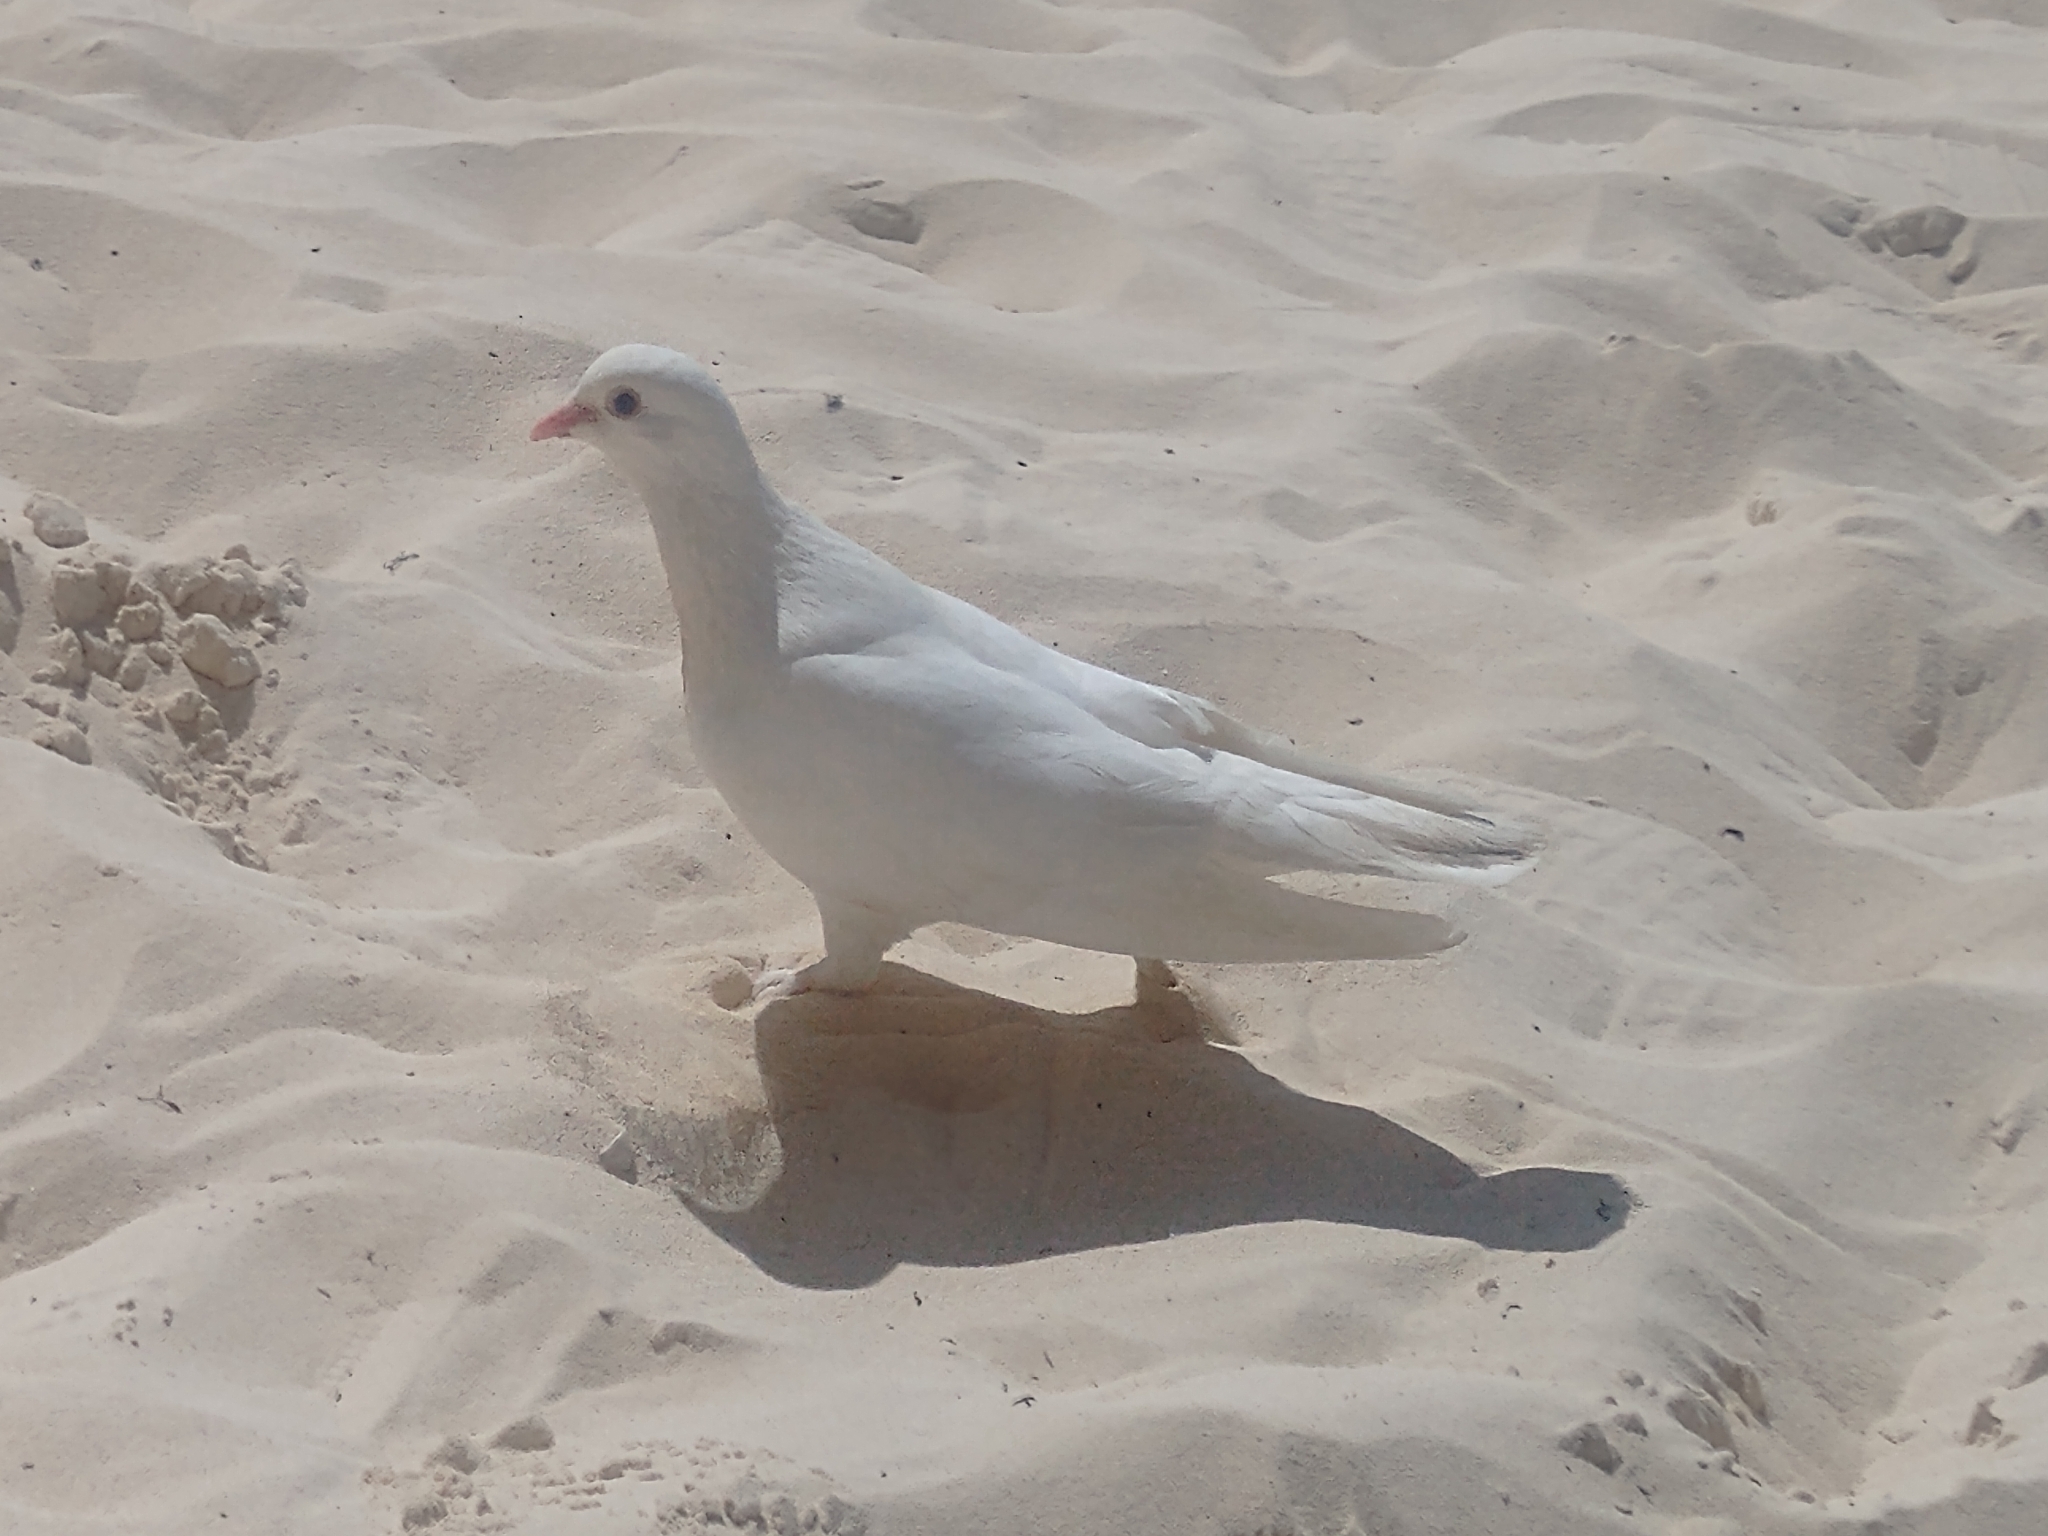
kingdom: Animalia
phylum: Chordata
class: Aves
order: Columbiformes
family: Columbidae
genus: Columba
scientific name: Columba livia
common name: Rock pigeon
